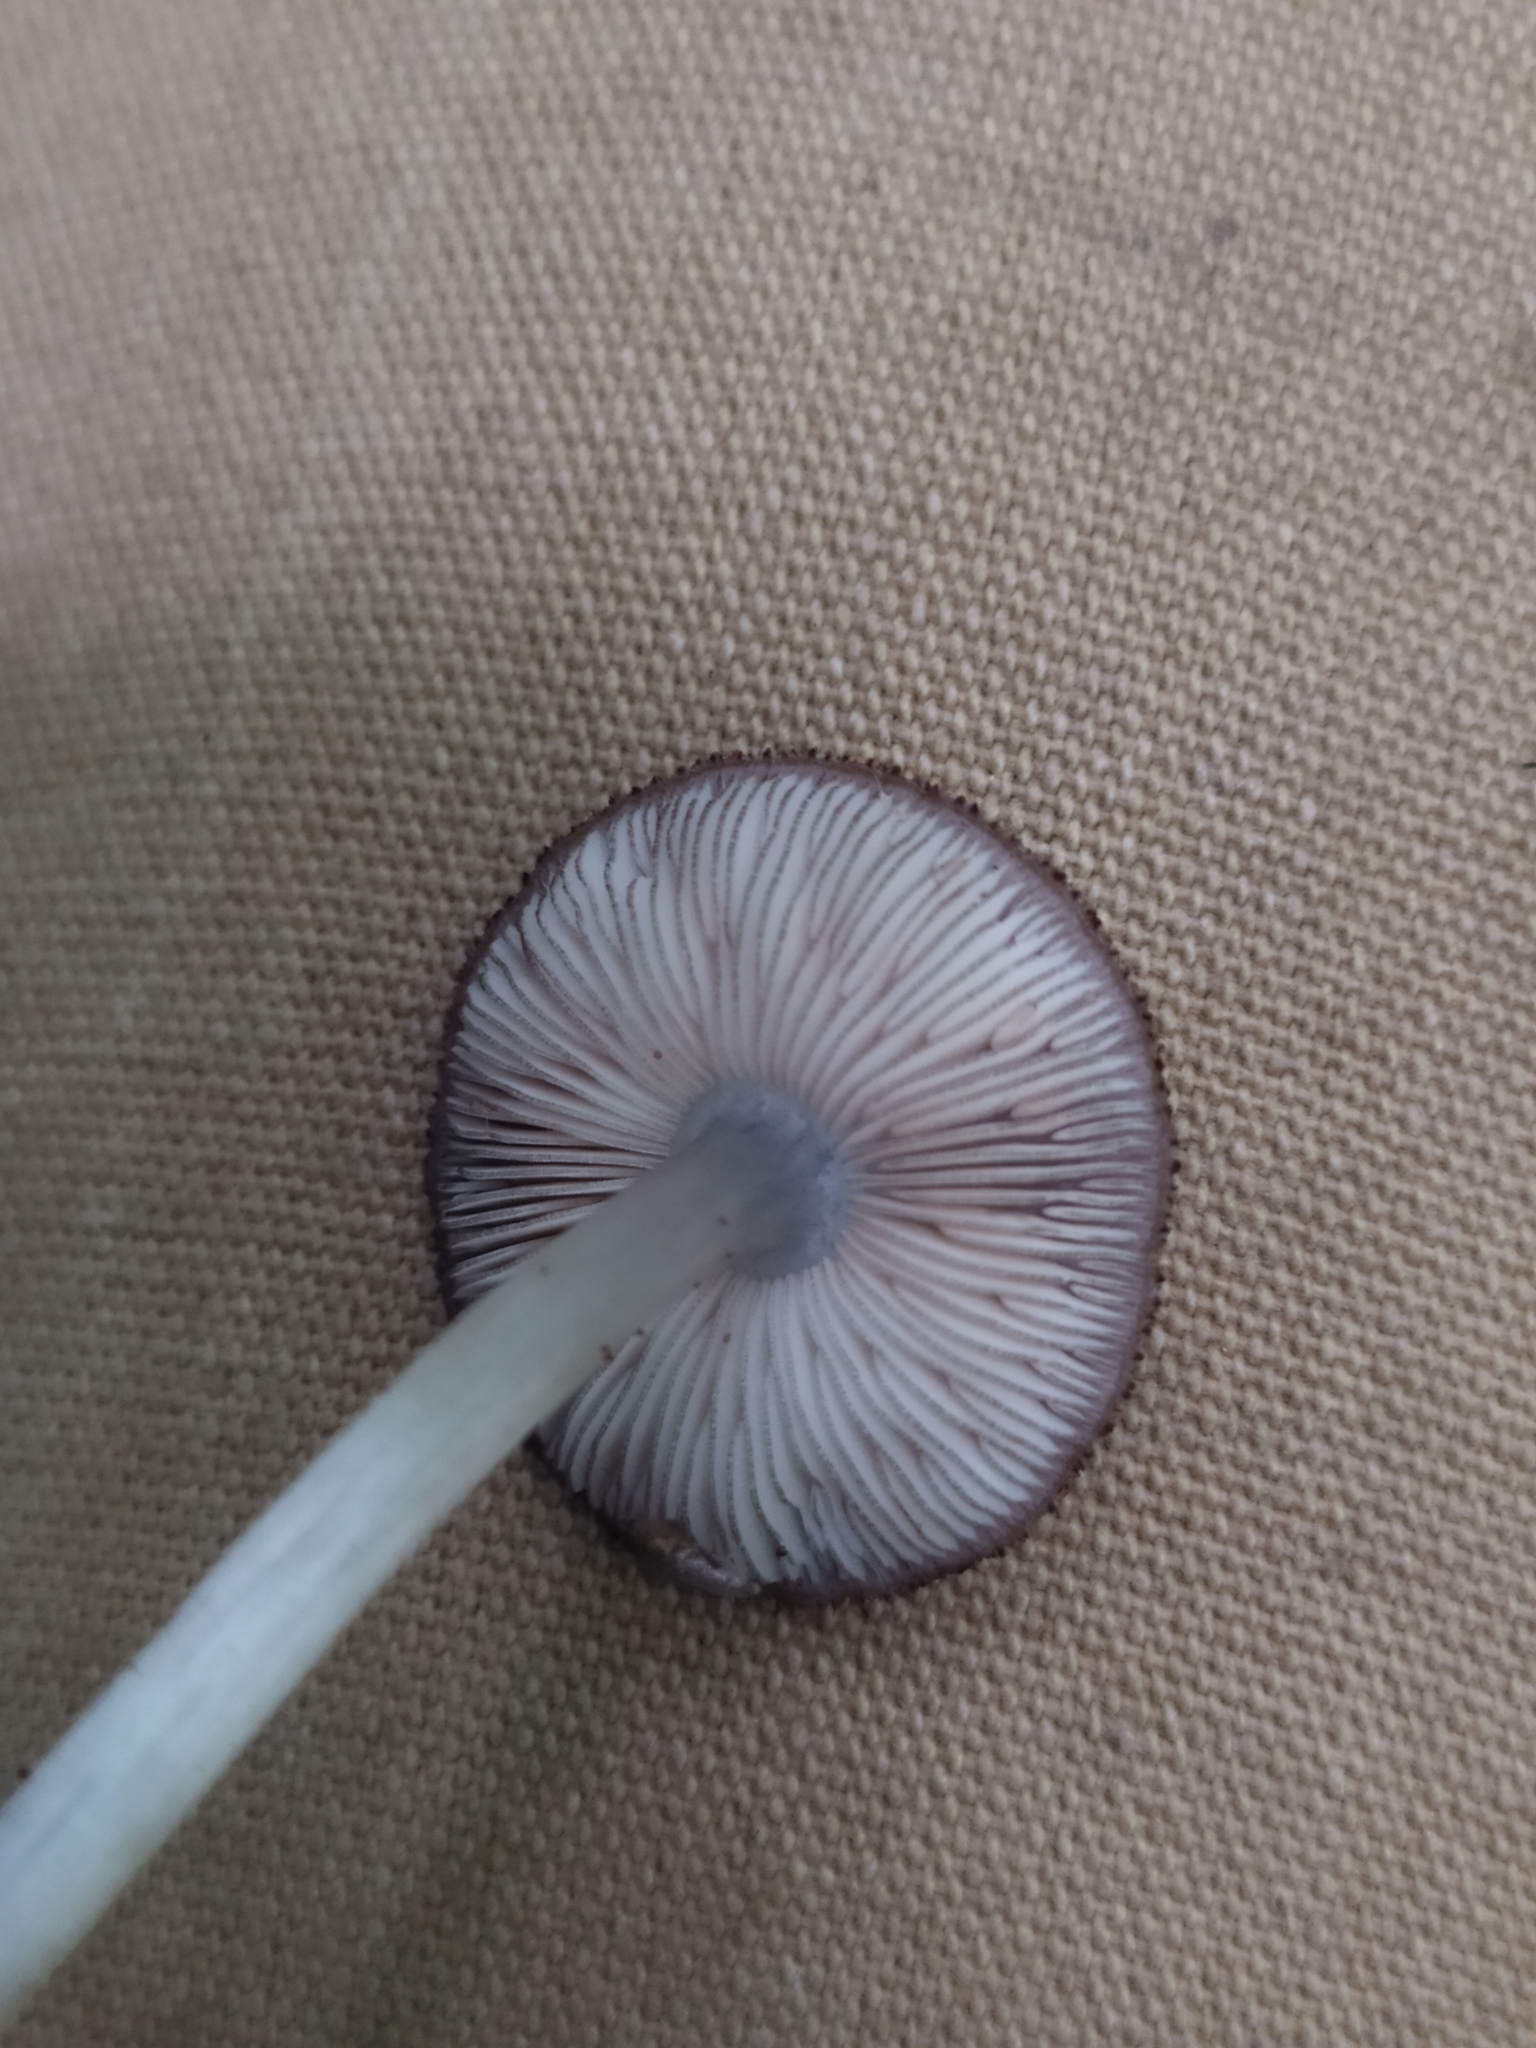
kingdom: Fungi
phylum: Basidiomycota
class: Agaricomycetes
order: Agaricales
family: Pluteaceae
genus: Pluteus
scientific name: Pluteus hispidulus
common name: Fleecy shield
